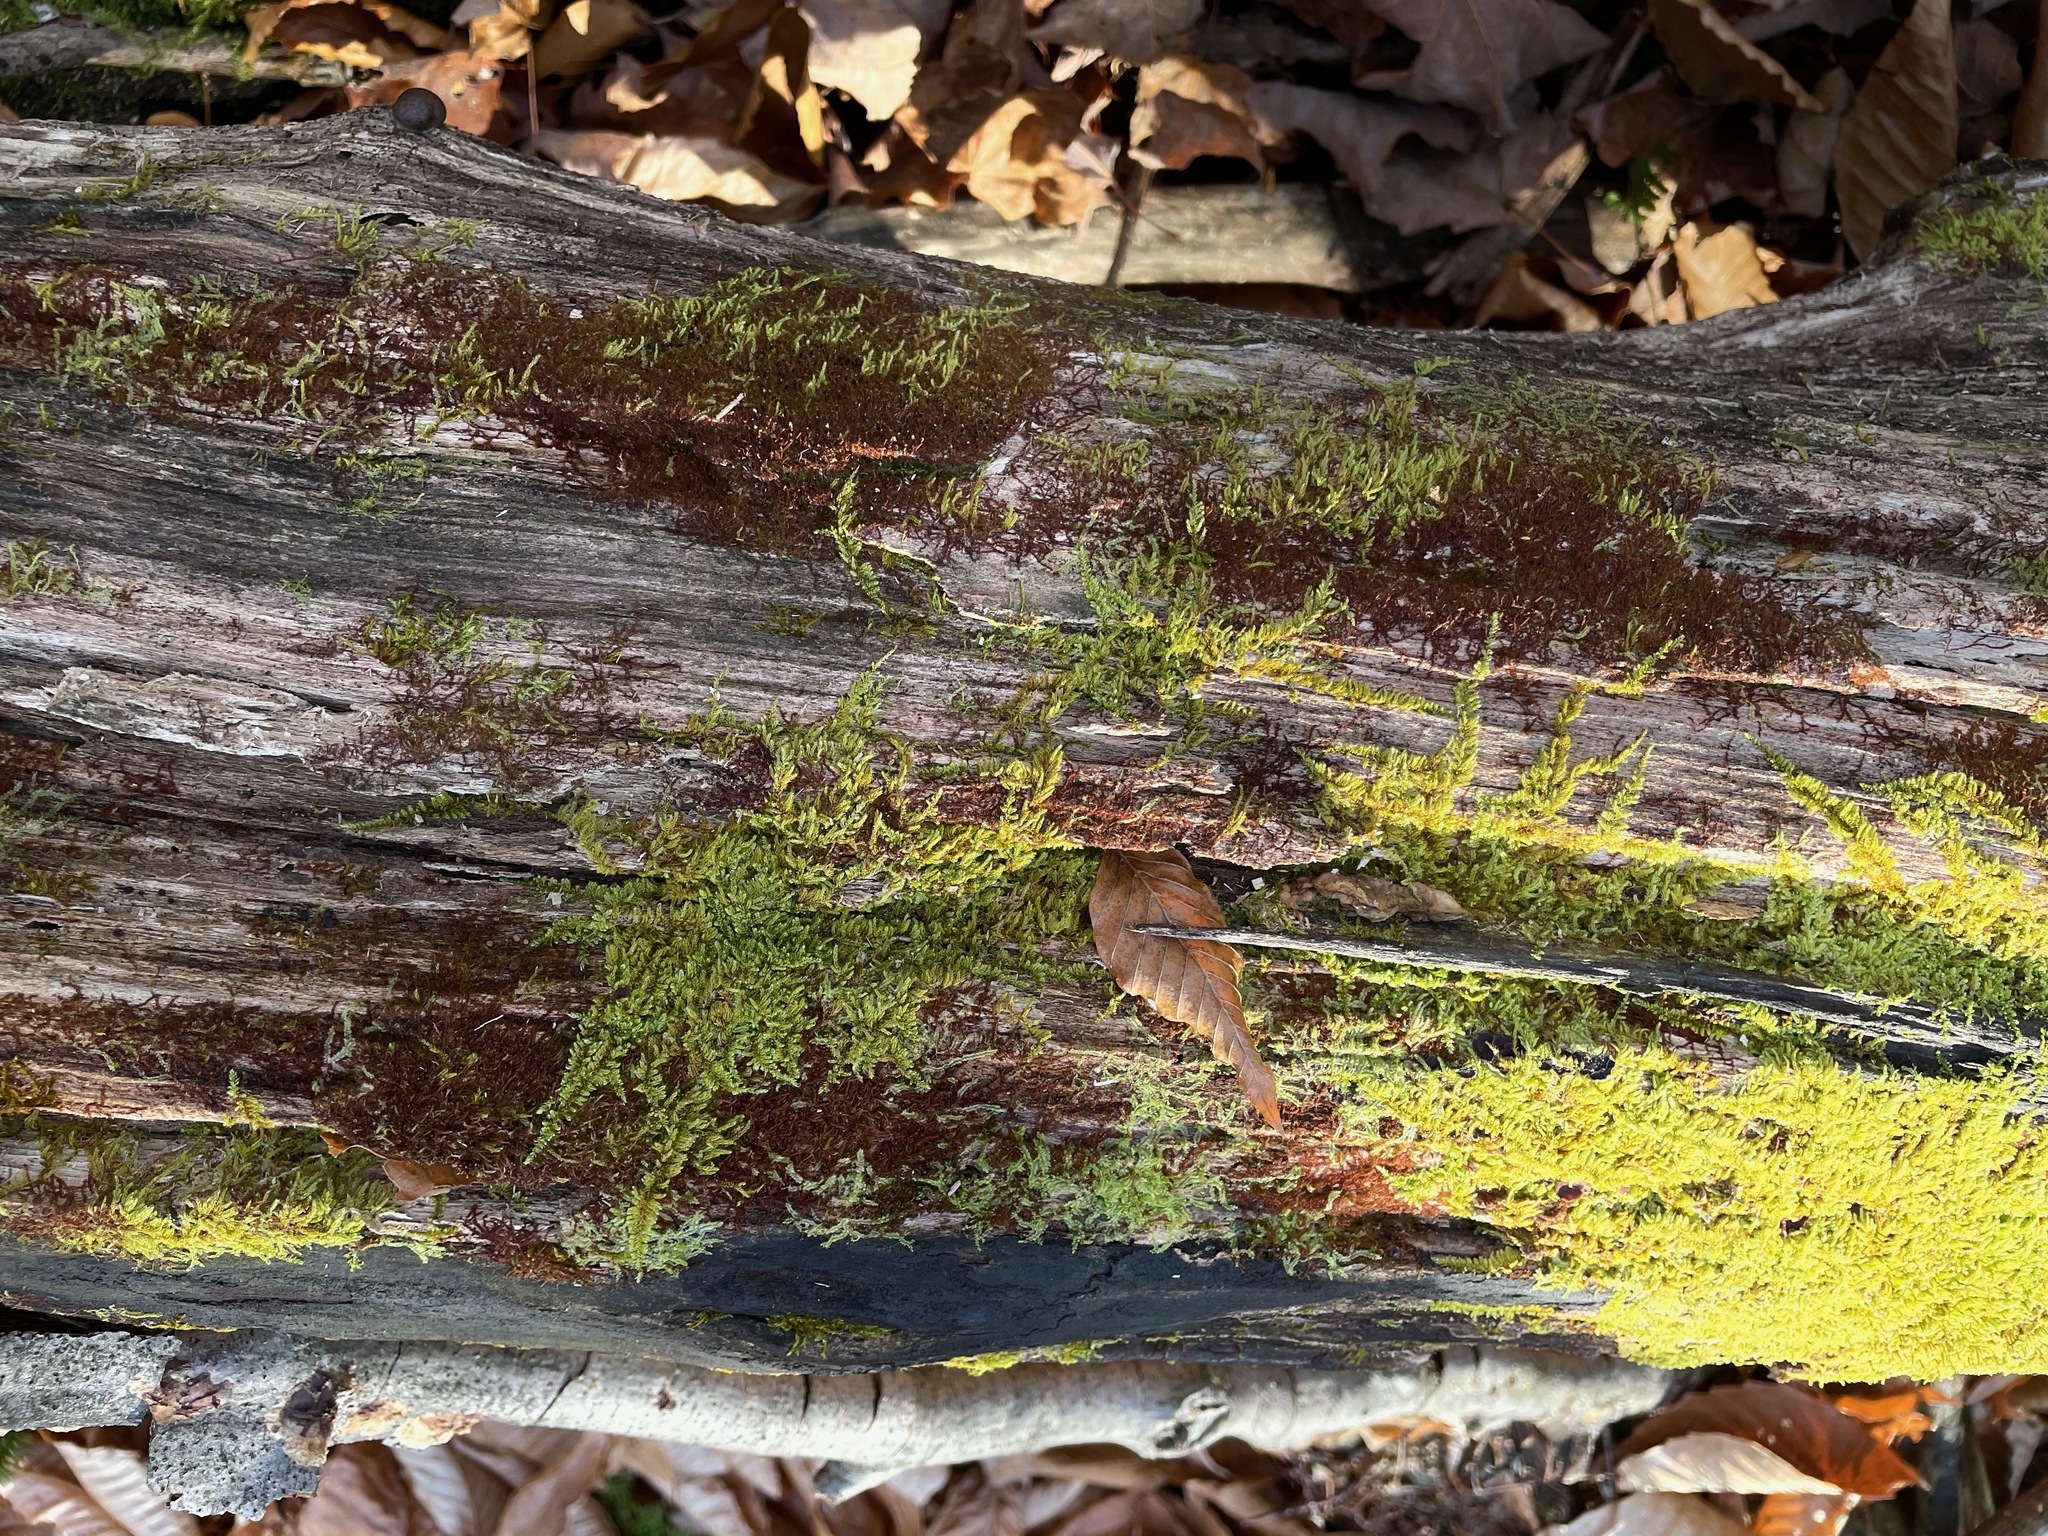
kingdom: Plantae
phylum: Marchantiophyta
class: Jungermanniopsida
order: Jungermanniales
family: Cephaloziaceae
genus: Nowellia
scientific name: Nowellia curvifolia
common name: Wood rustwort
